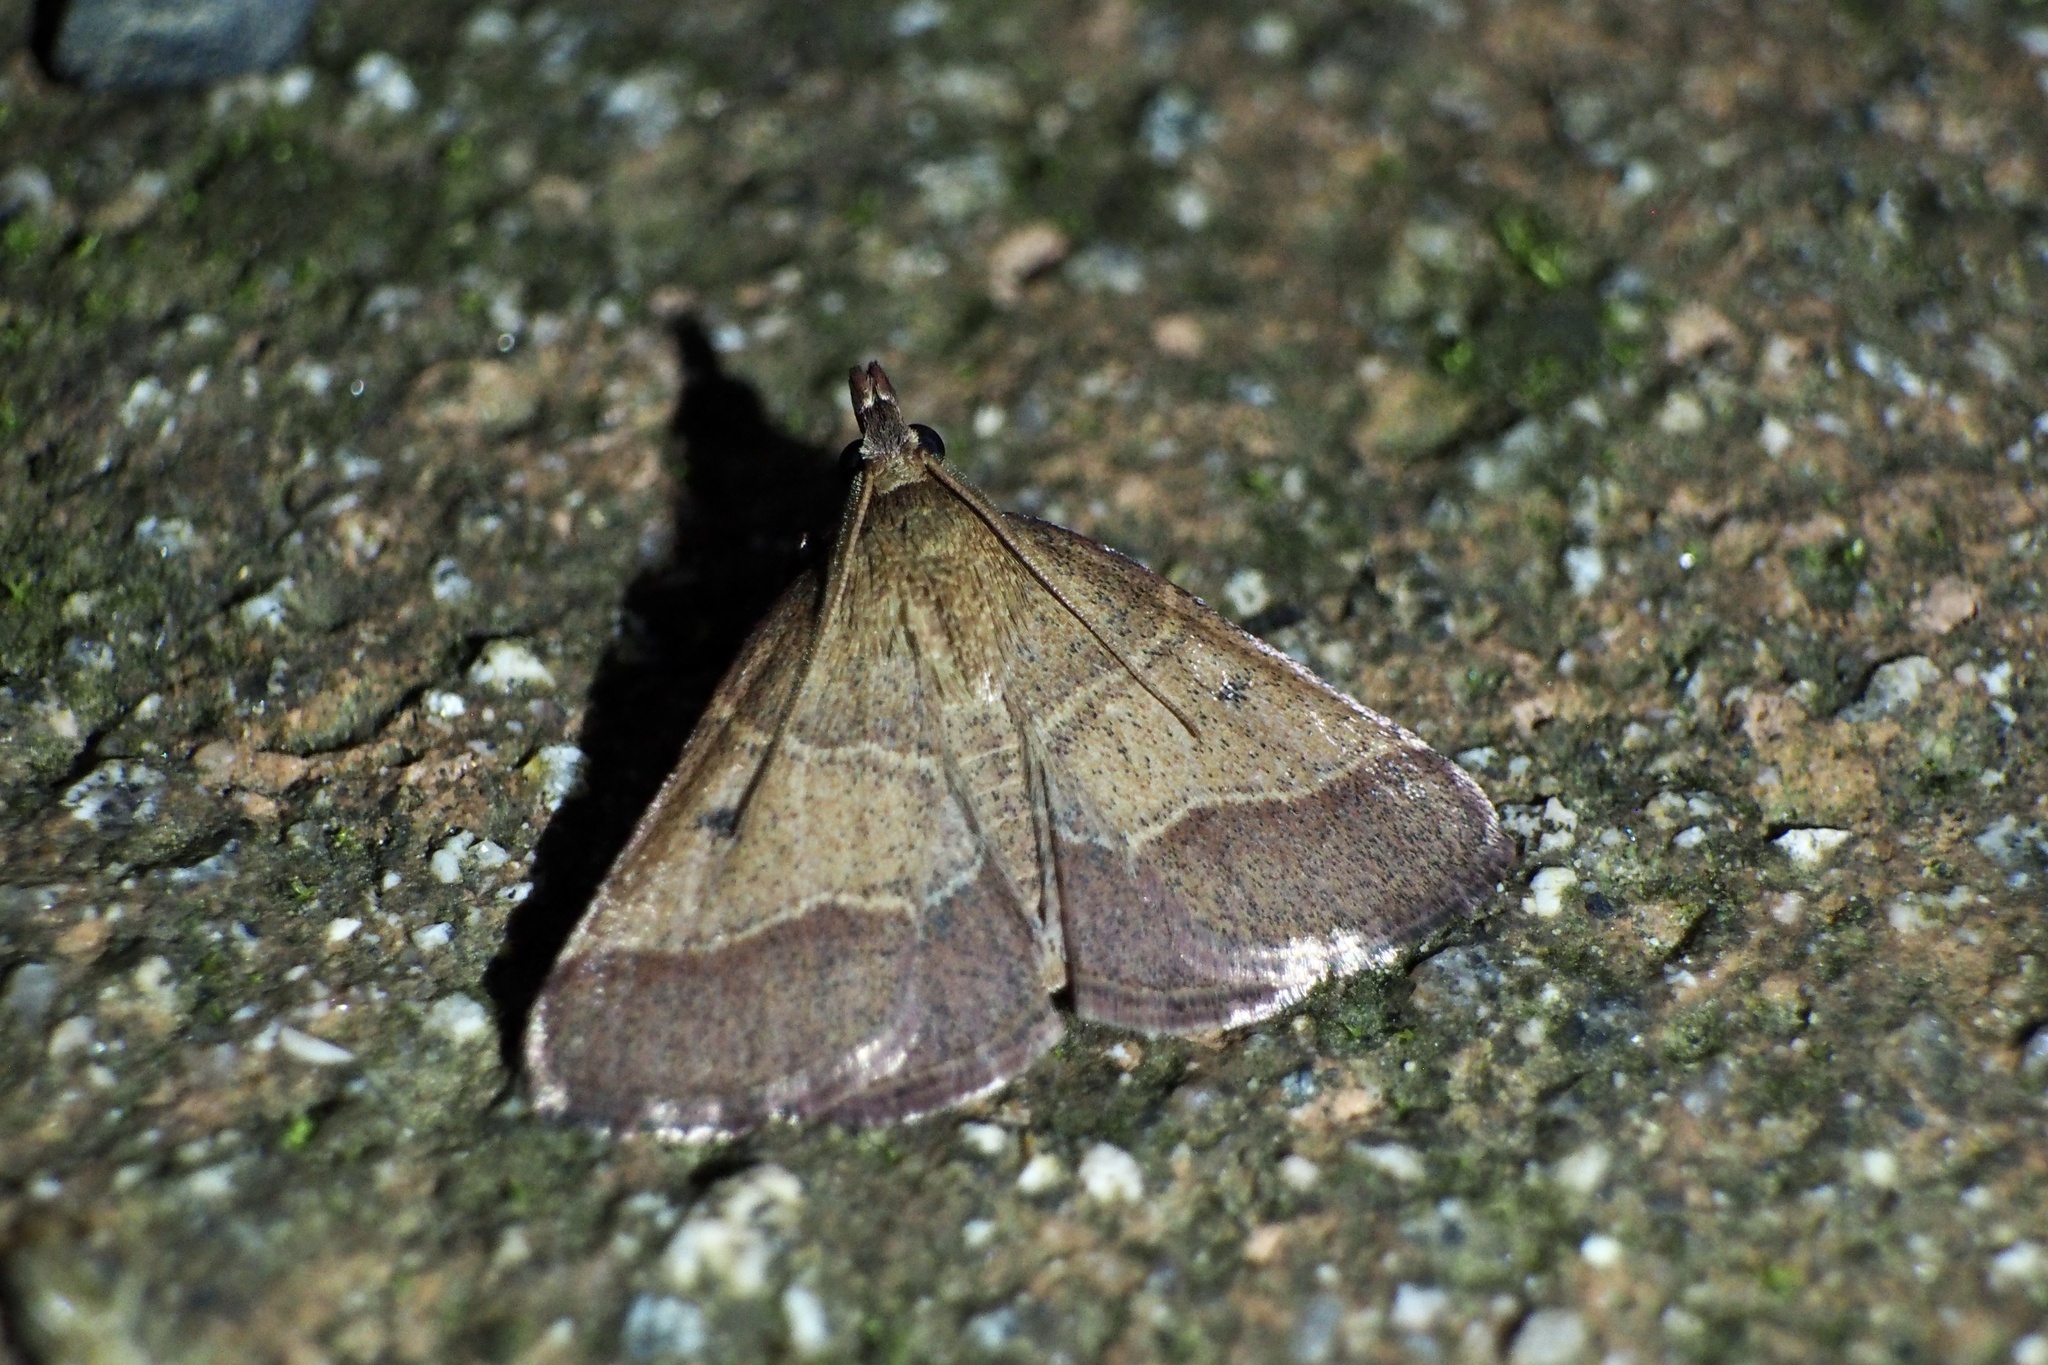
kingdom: Animalia
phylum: Arthropoda
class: Insecta
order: Lepidoptera
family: Pyralidae
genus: Arippara
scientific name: Arippara indicator
